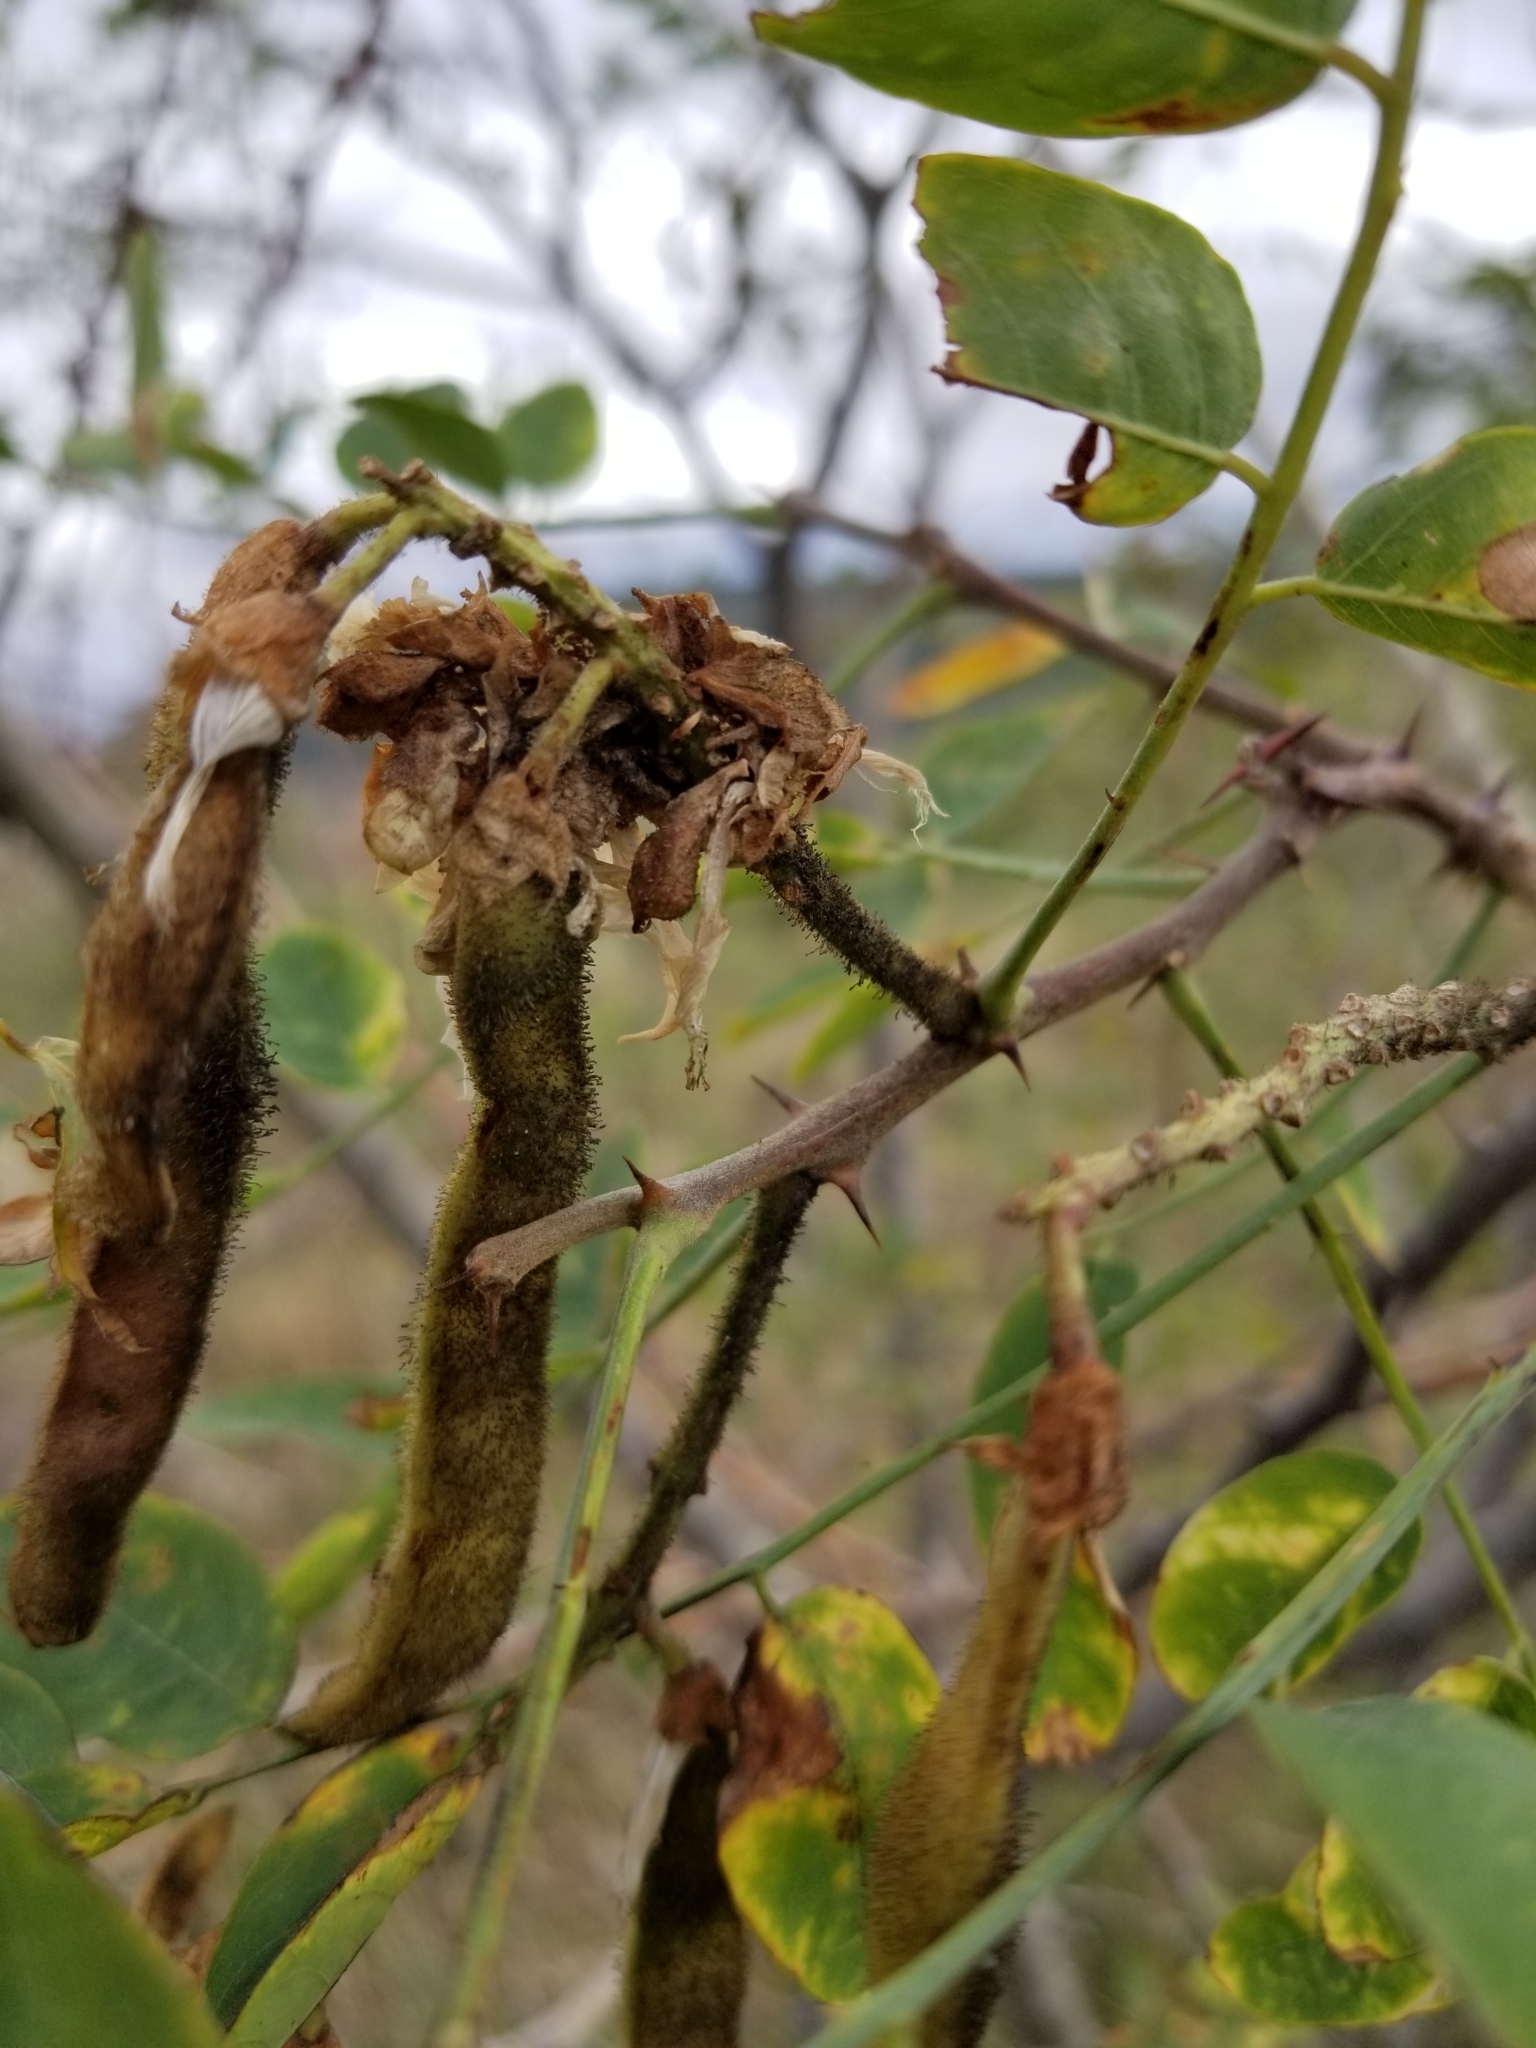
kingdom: Plantae
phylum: Tracheophyta
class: Magnoliopsida
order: Fabales
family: Fabaceae
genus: Robinia
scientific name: Robinia neomexicana
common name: New mexico locust
